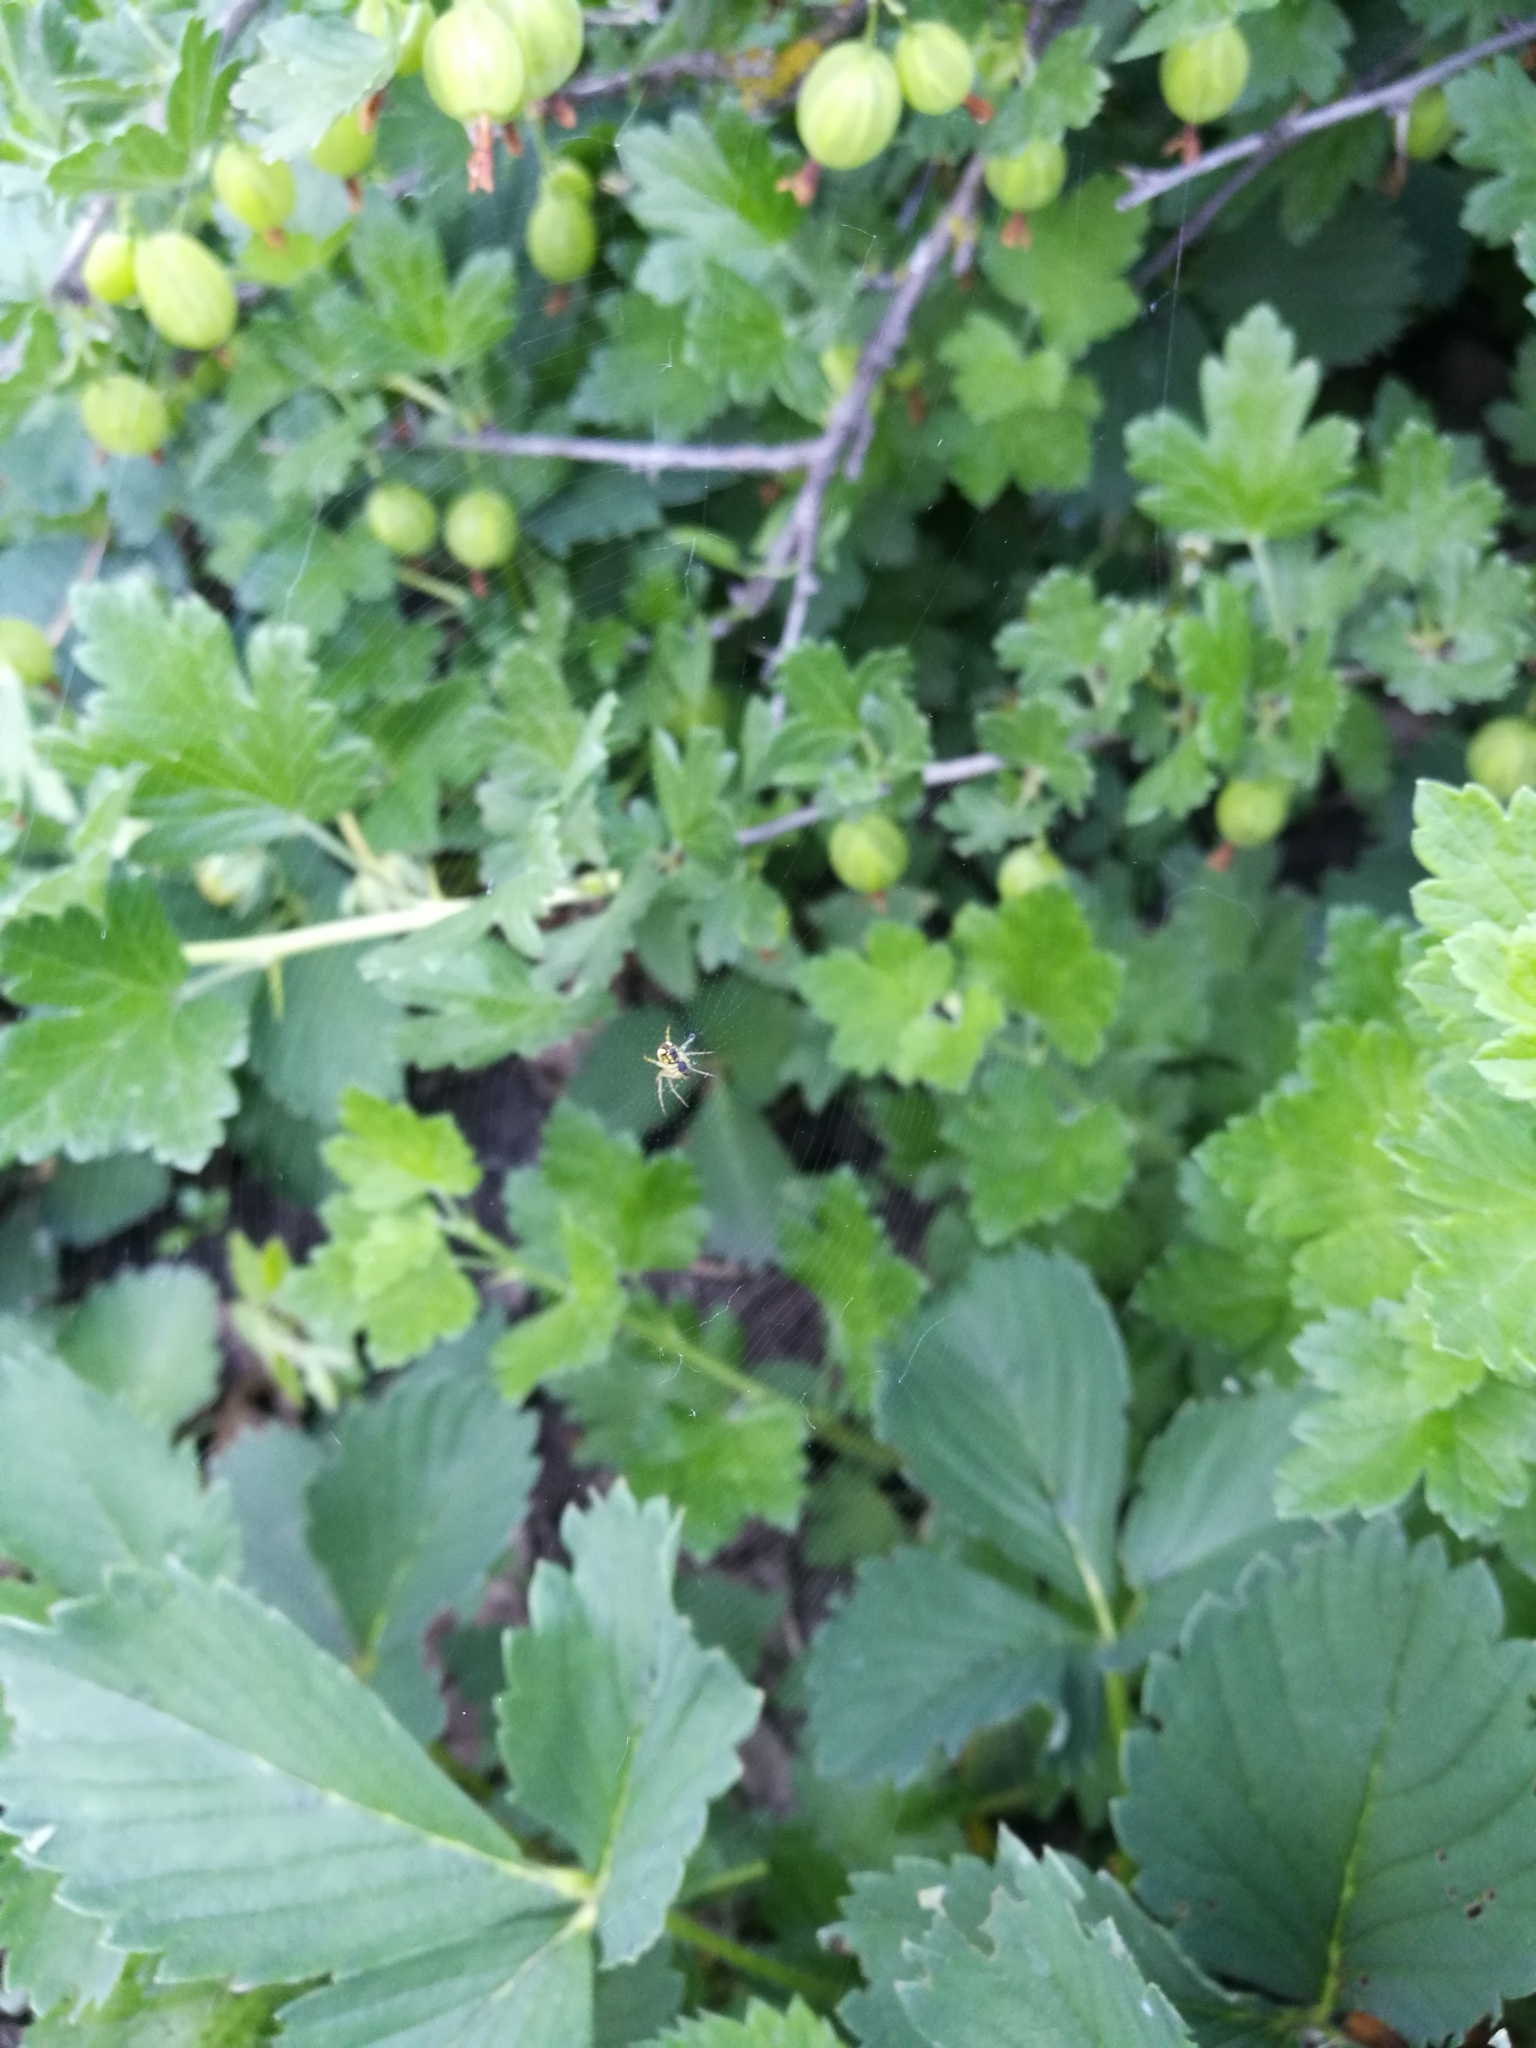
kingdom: Animalia
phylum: Arthropoda
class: Arachnida
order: Araneae
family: Araneidae
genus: Mangora
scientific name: Mangora acalypha
